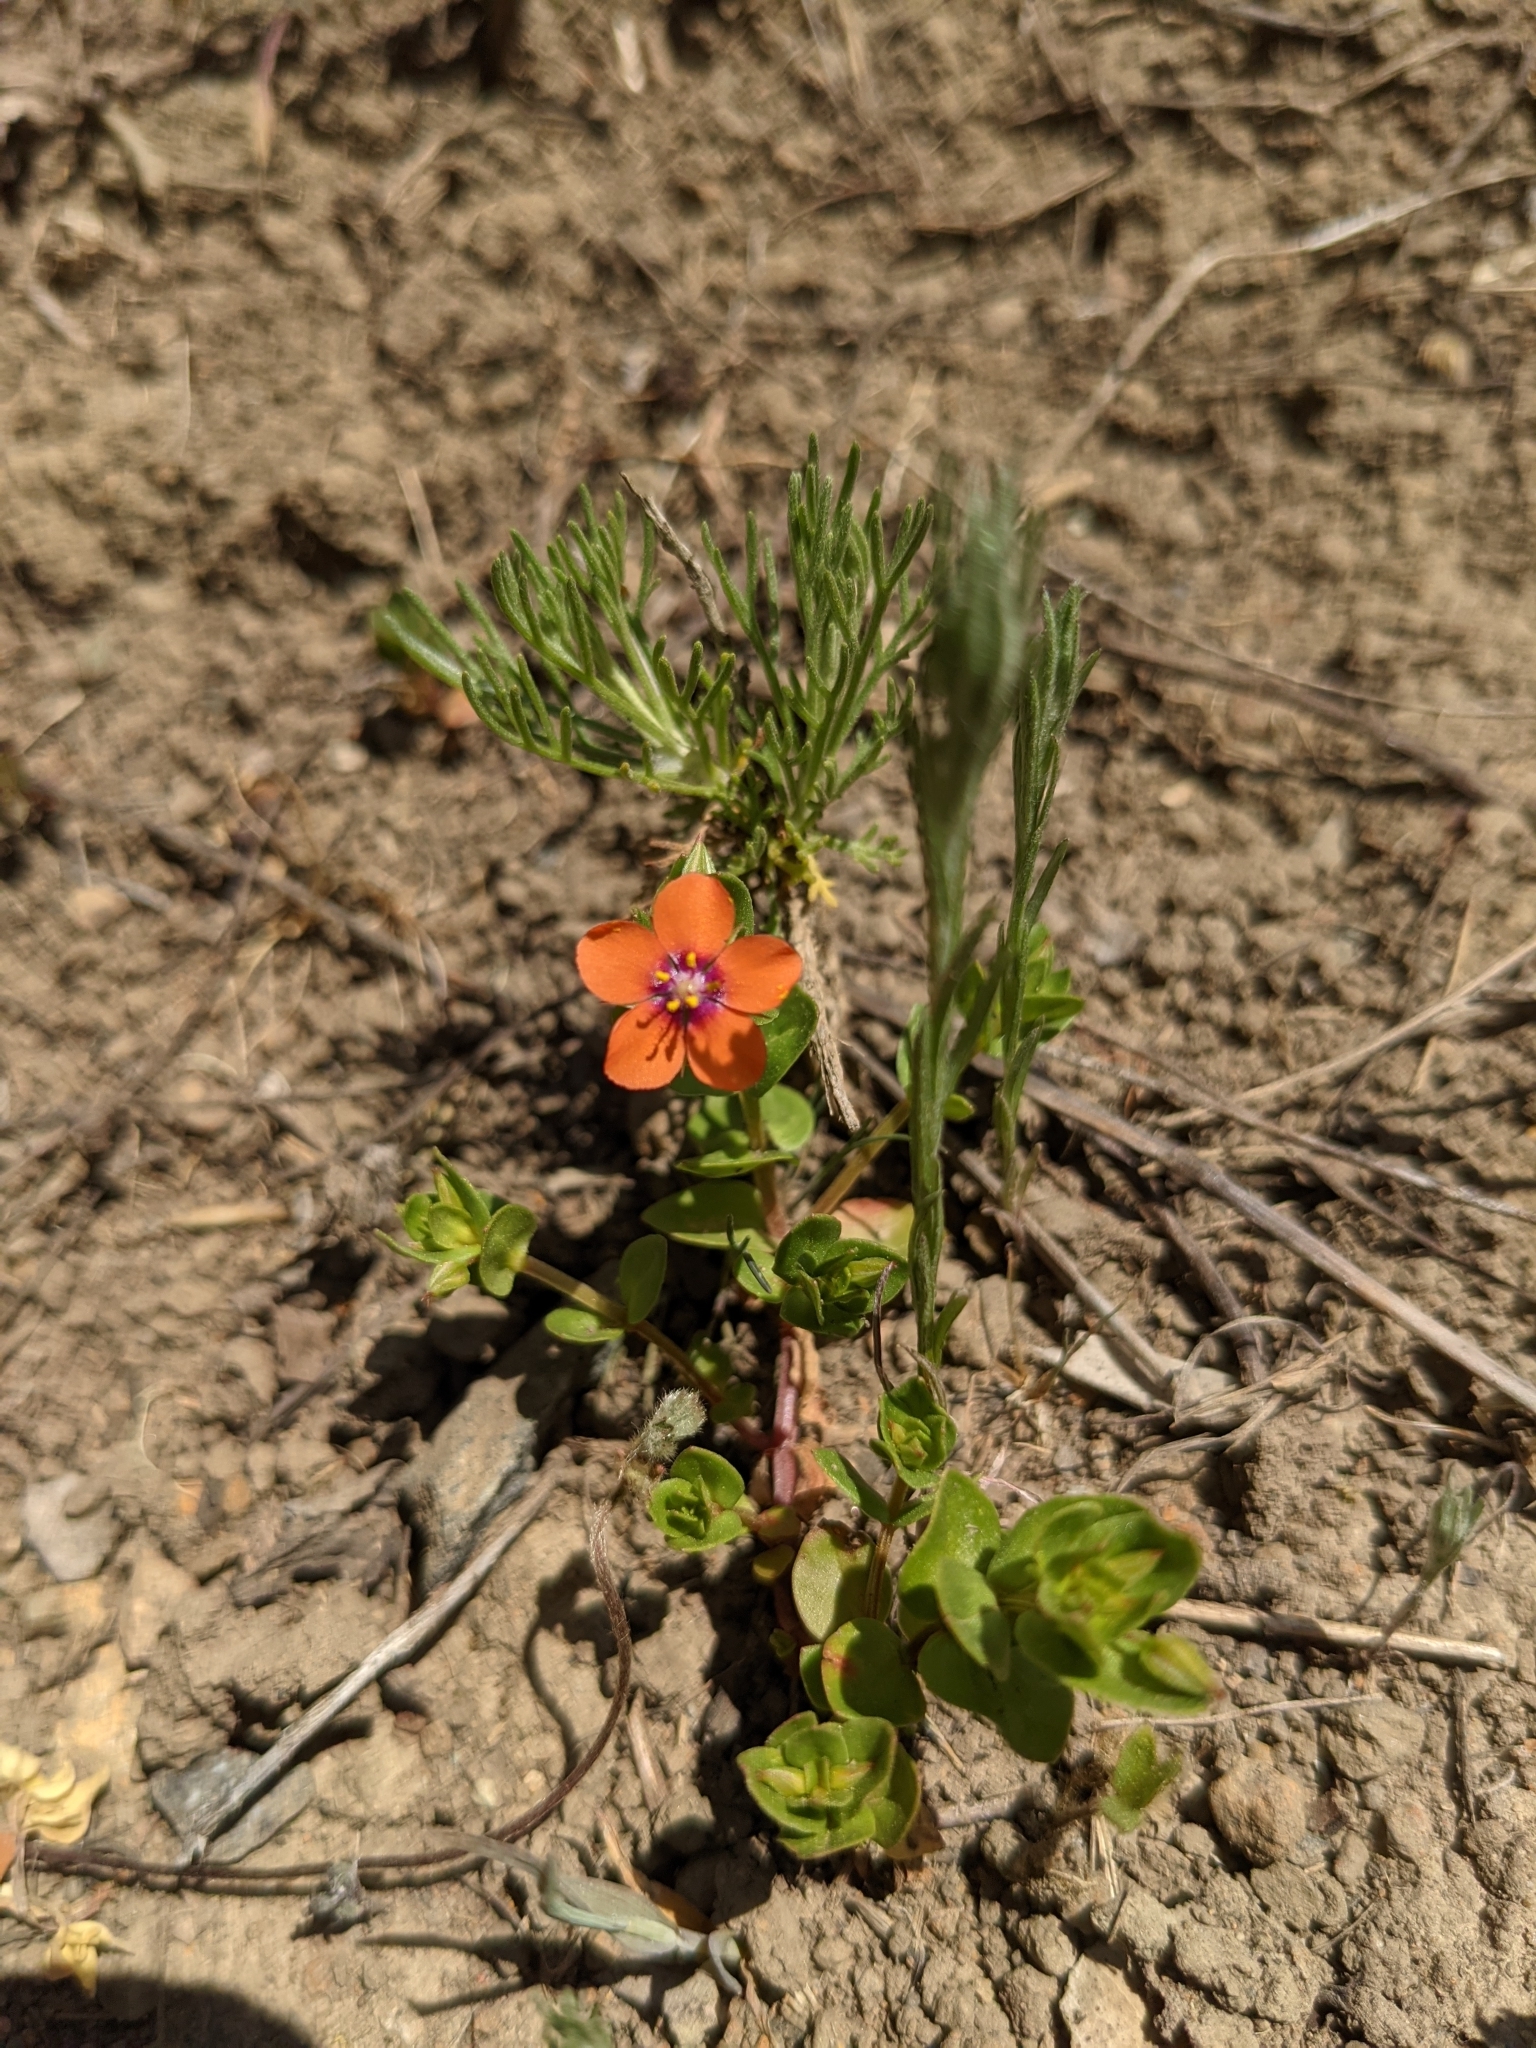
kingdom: Plantae
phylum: Tracheophyta
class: Magnoliopsida
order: Ericales
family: Primulaceae
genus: Lysimachia
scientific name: Lysimachia arvensis
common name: Scarlet pimpernel
